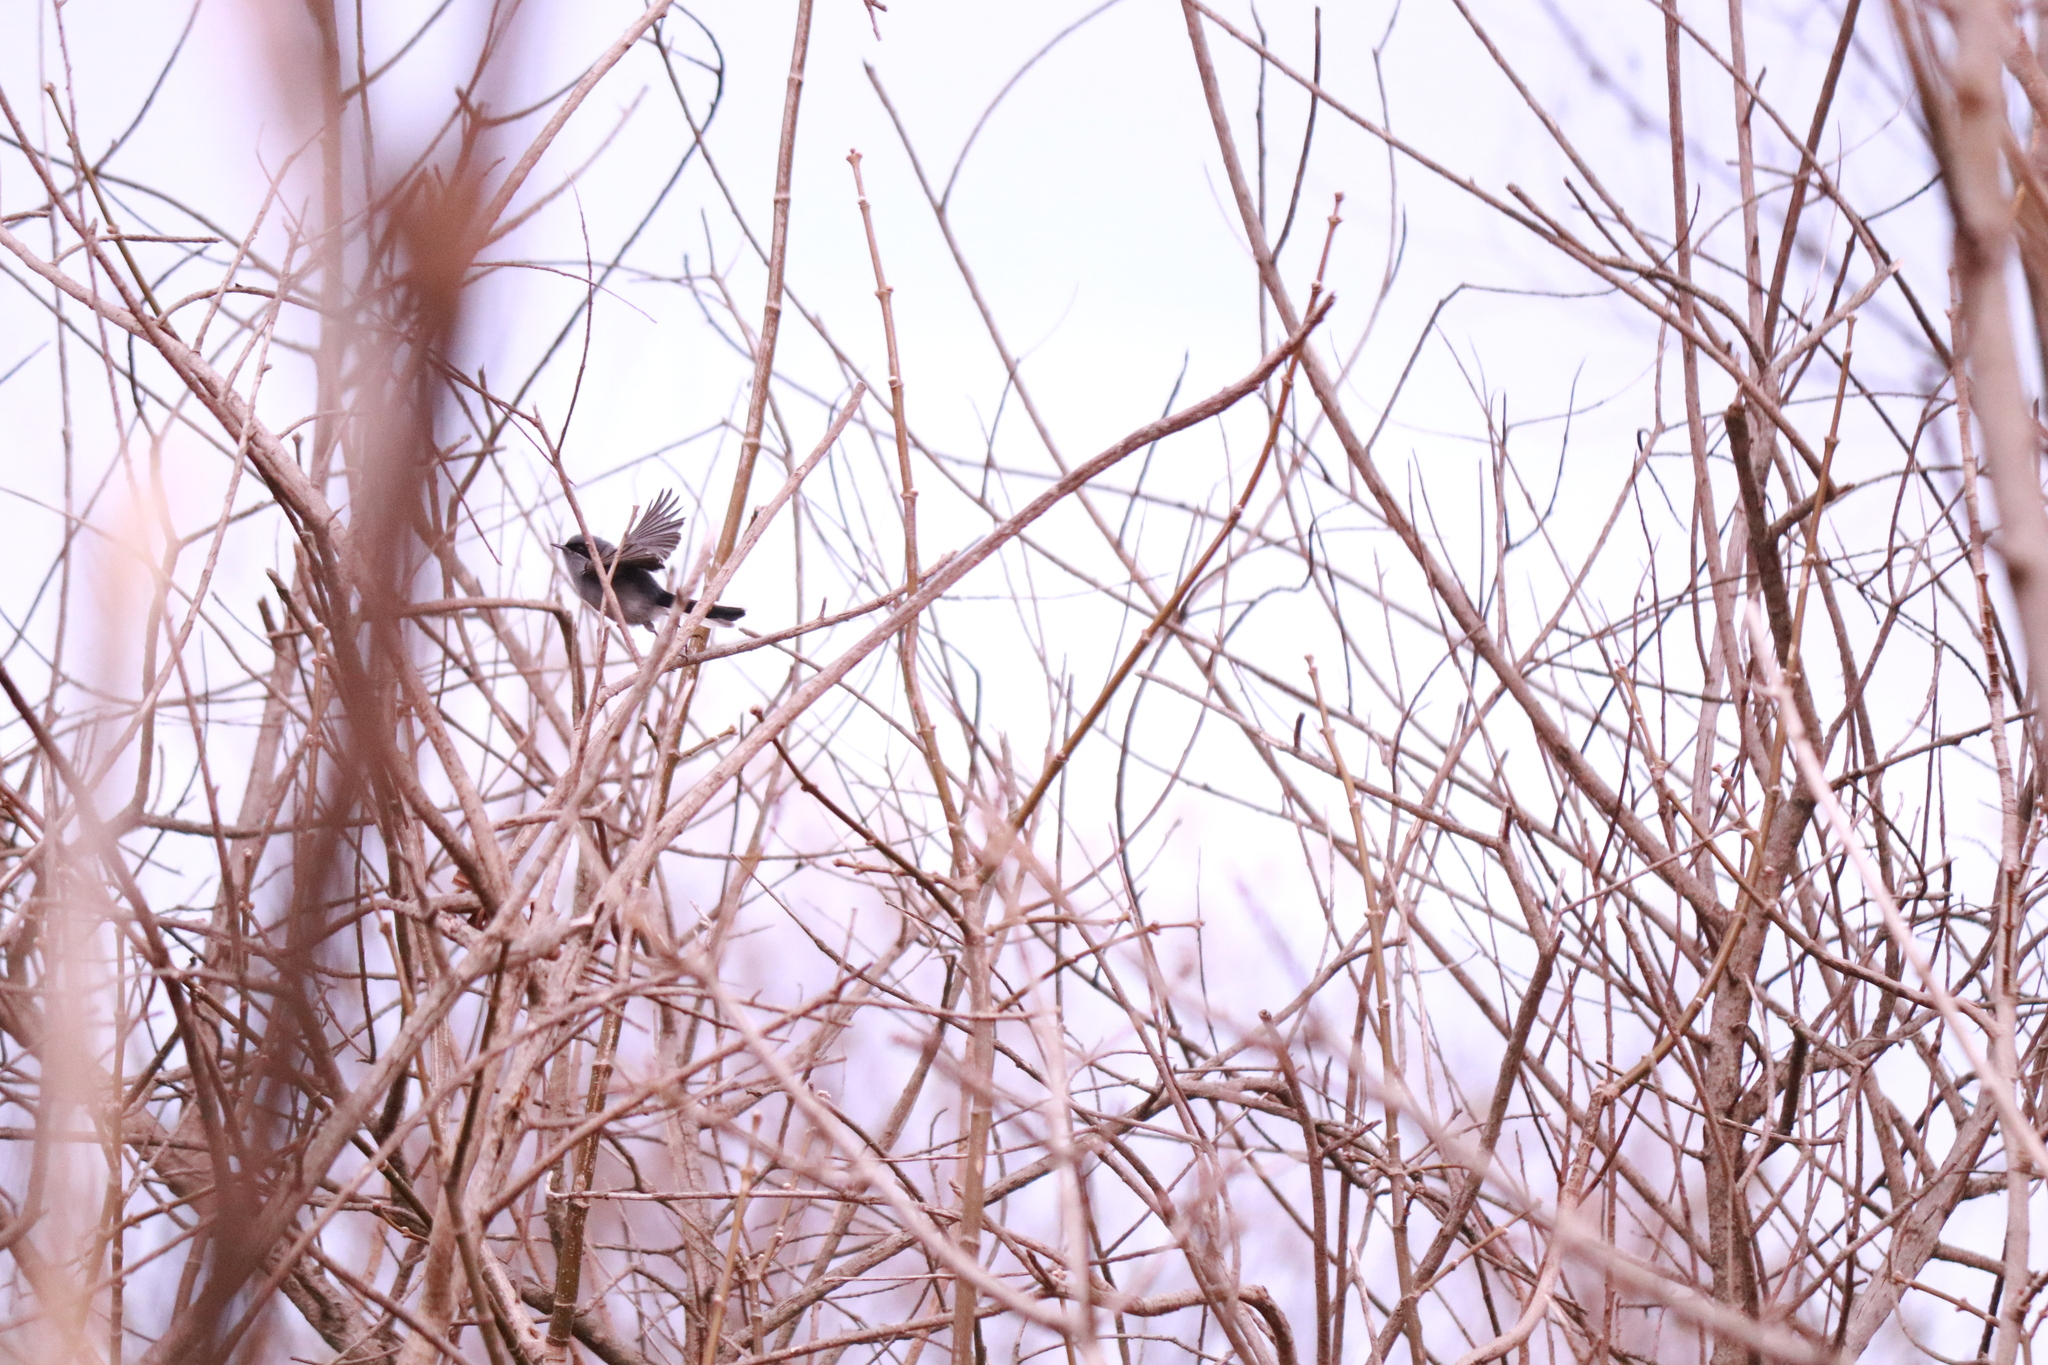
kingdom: Animalia
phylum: Chordata
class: Aves
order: Passeriformes
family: Polioptilidae
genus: Polioptila
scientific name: Polioptila dumicola
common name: Masked gnatcatcher
